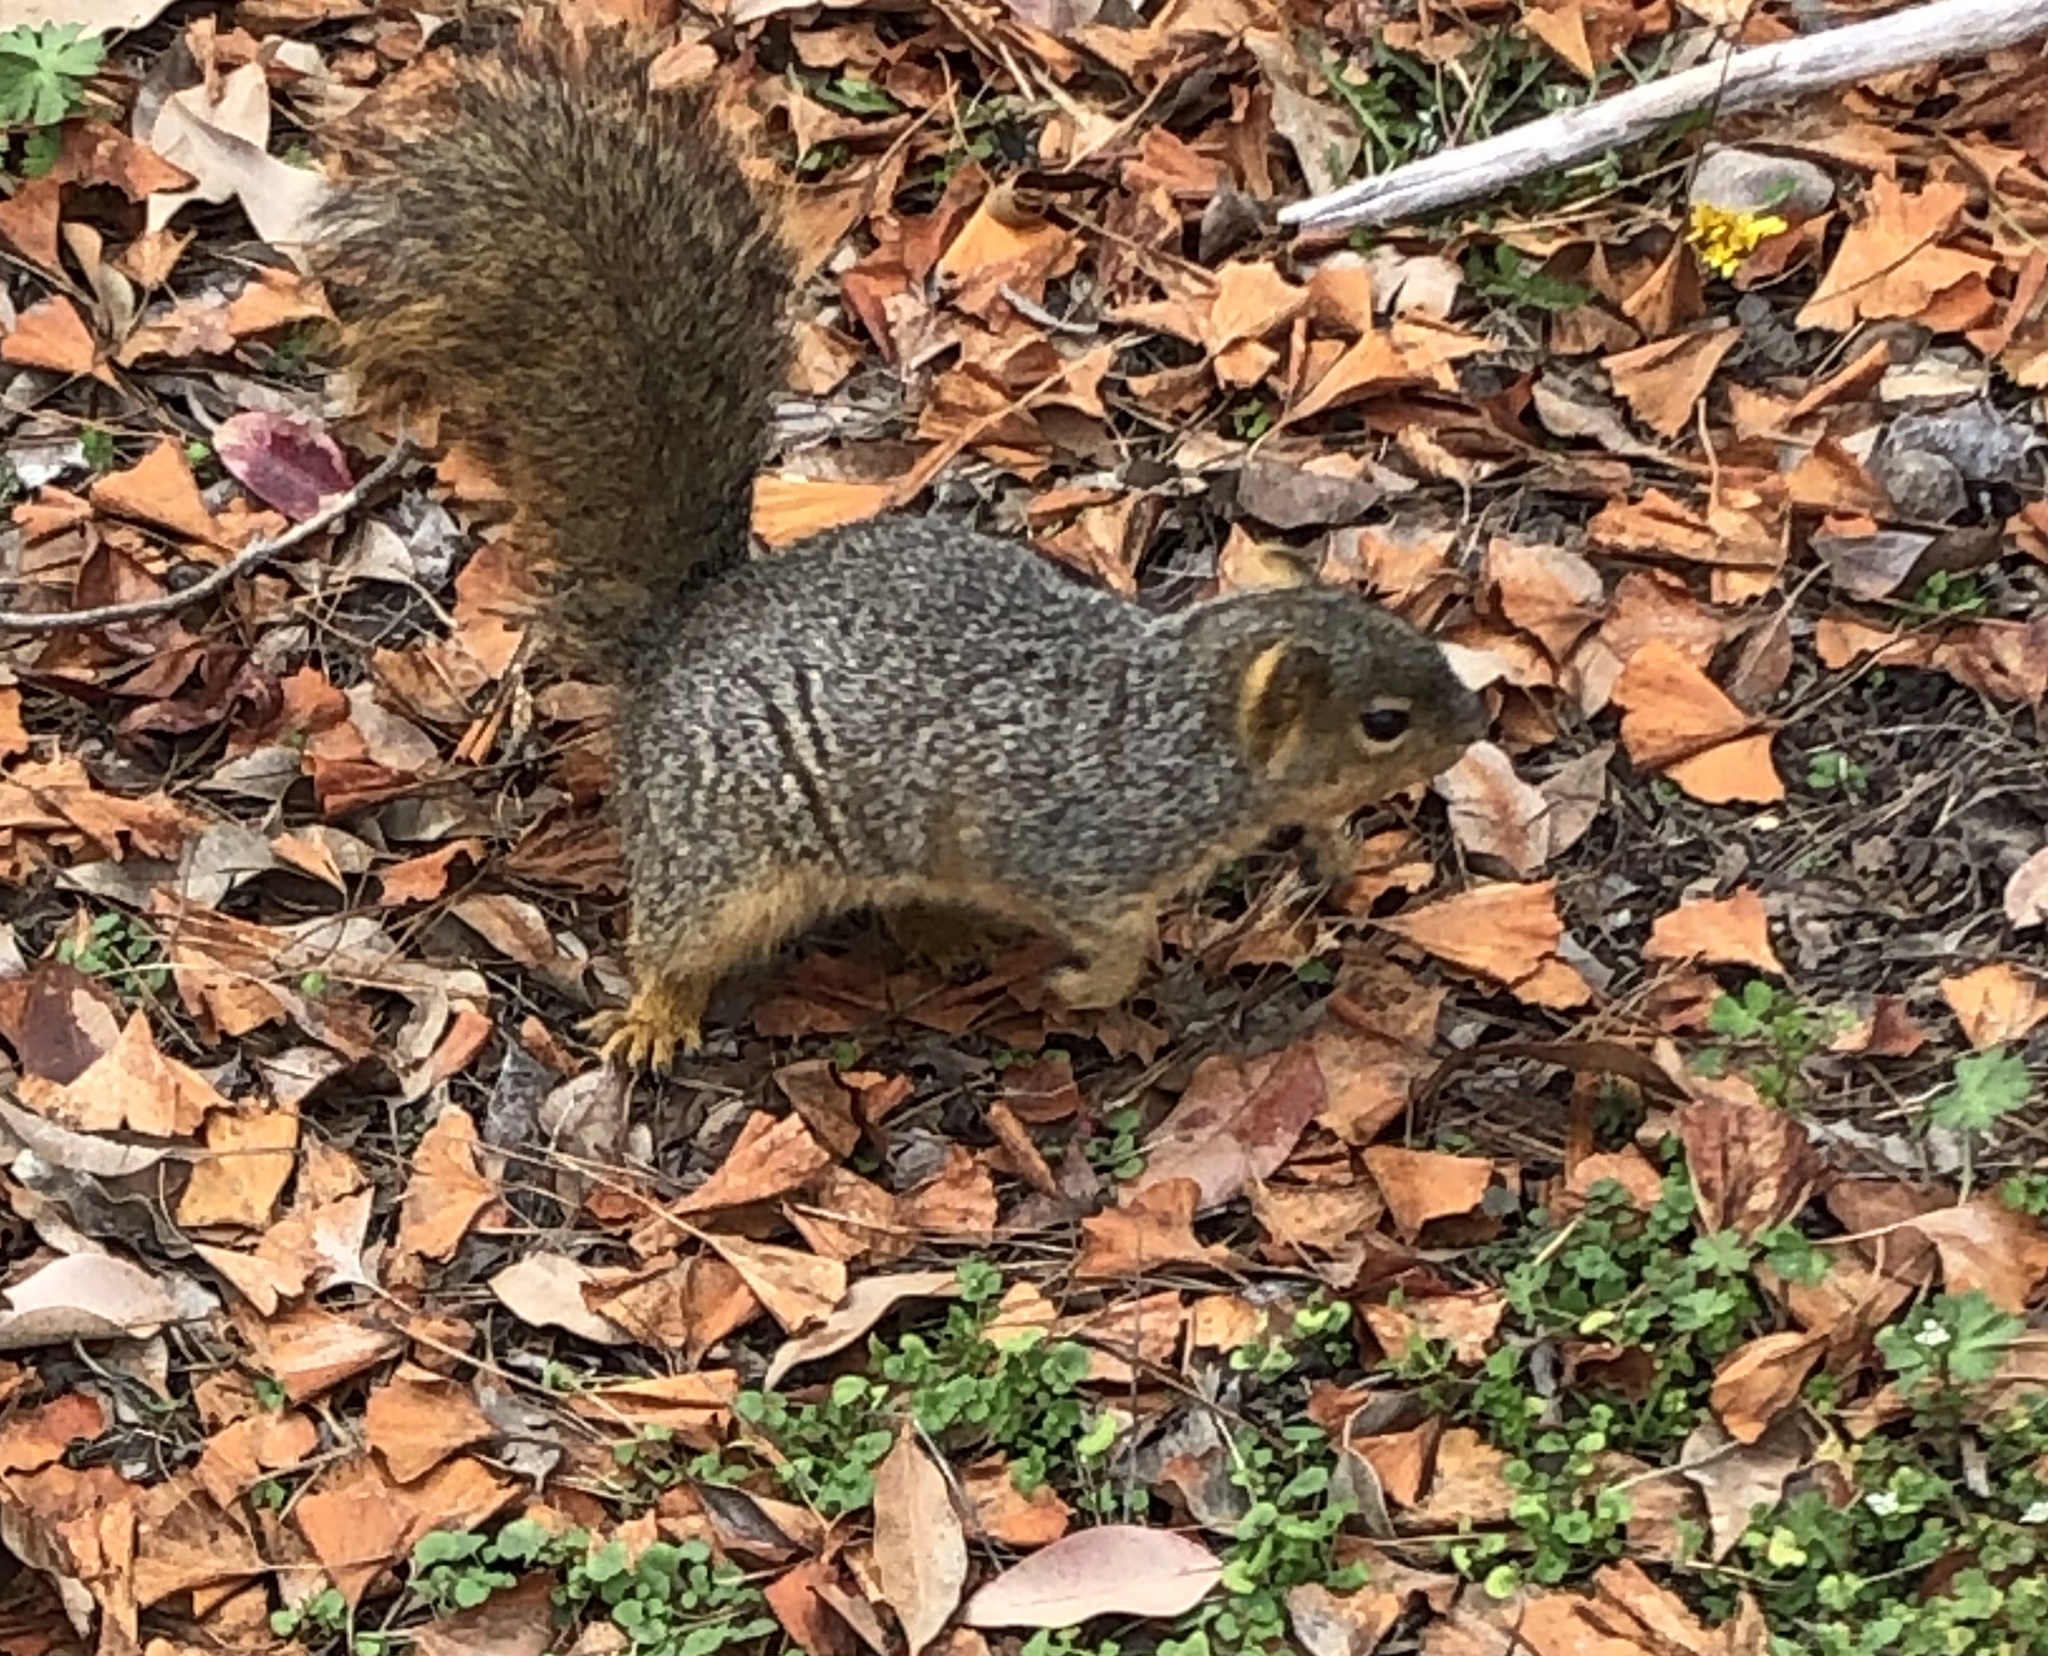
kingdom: Animalia
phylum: Chordata
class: Mammalia
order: Rodentia
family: Sciuridae
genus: Sciurus
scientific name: Sciurus niger
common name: Fox squirrel
